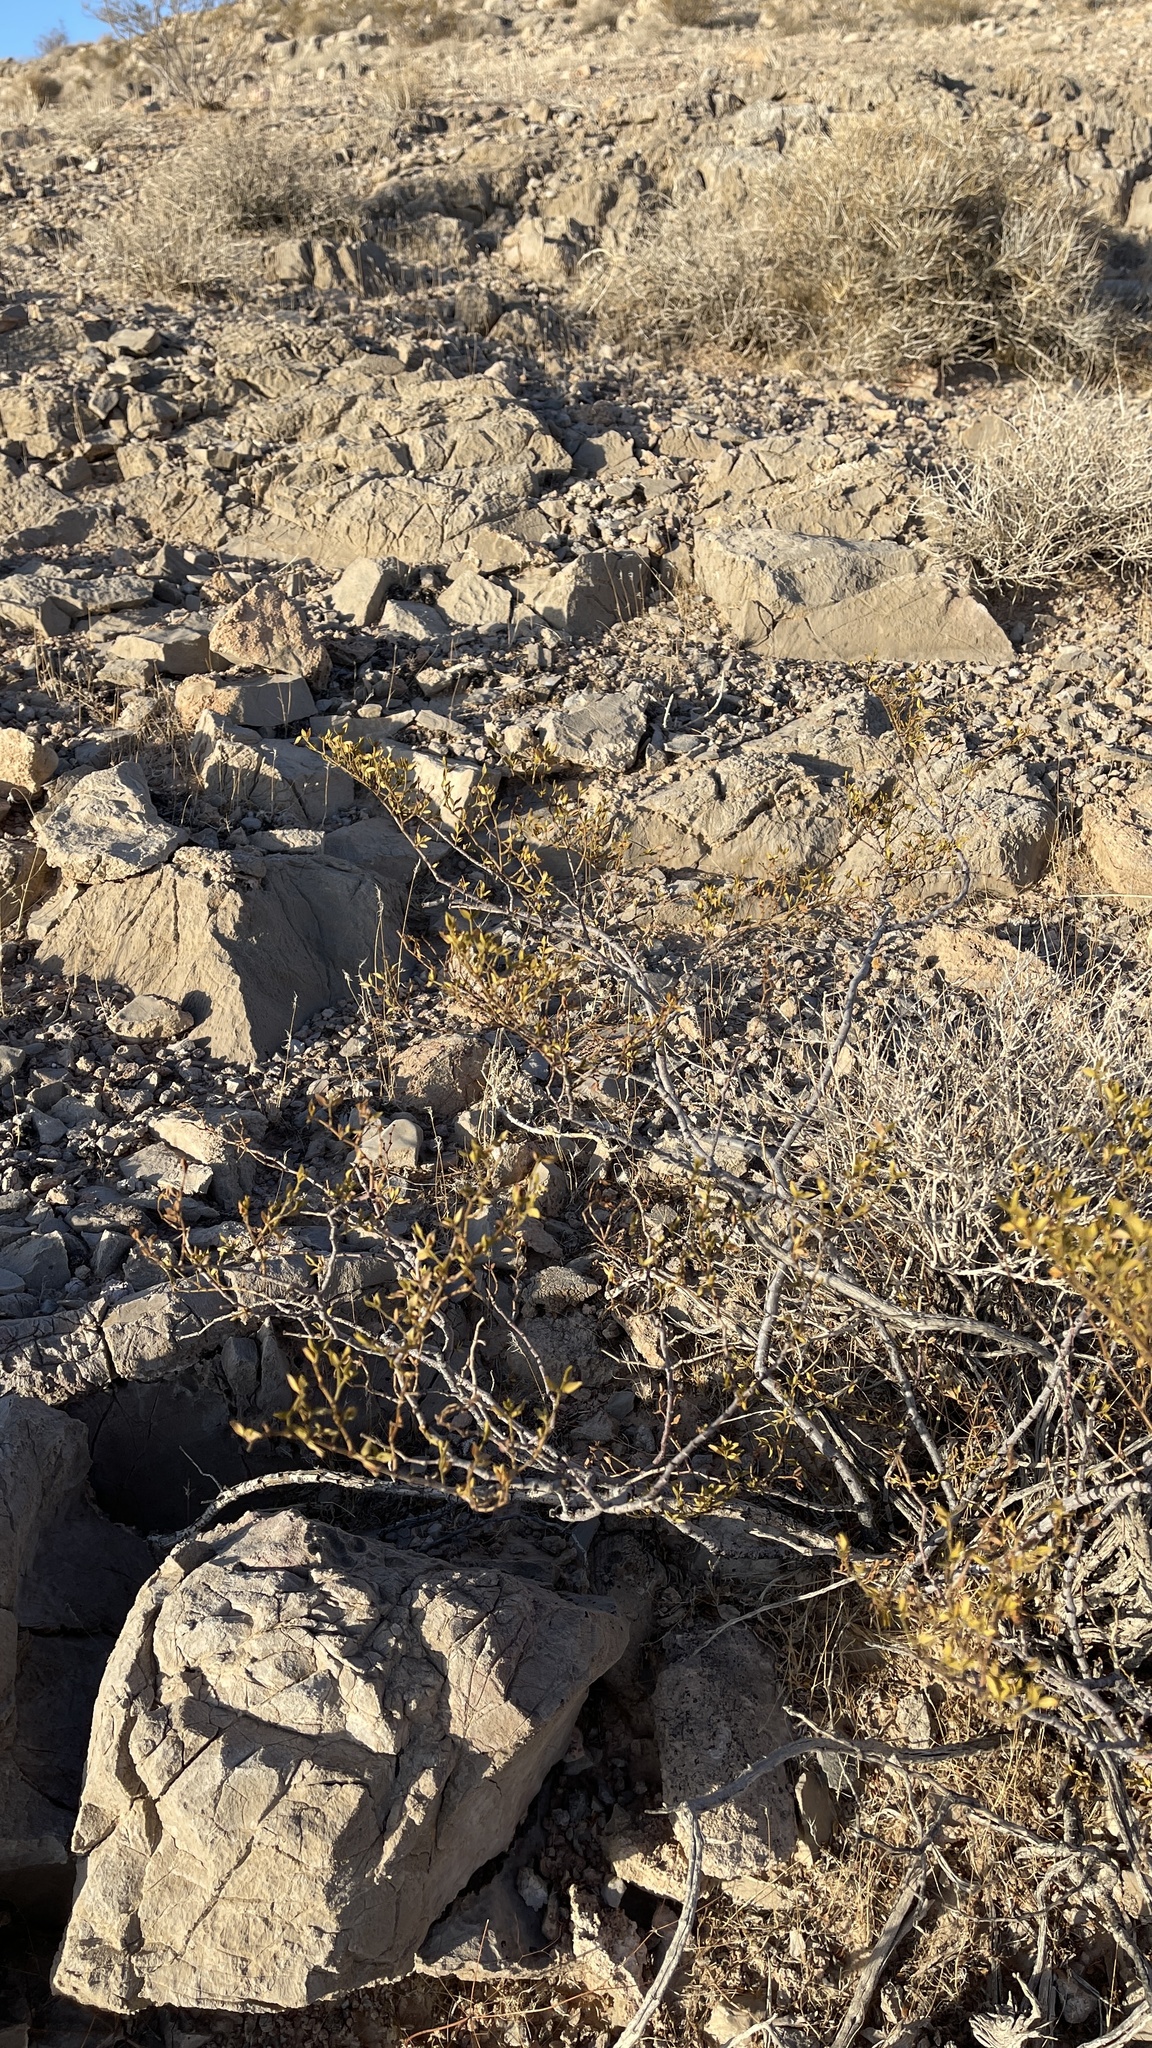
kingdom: Plantae
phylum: Tracheophyta
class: Magnoliopsida
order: Zygophyllales
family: Zygophyllaceae
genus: Larrea
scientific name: Larrea tridentata
